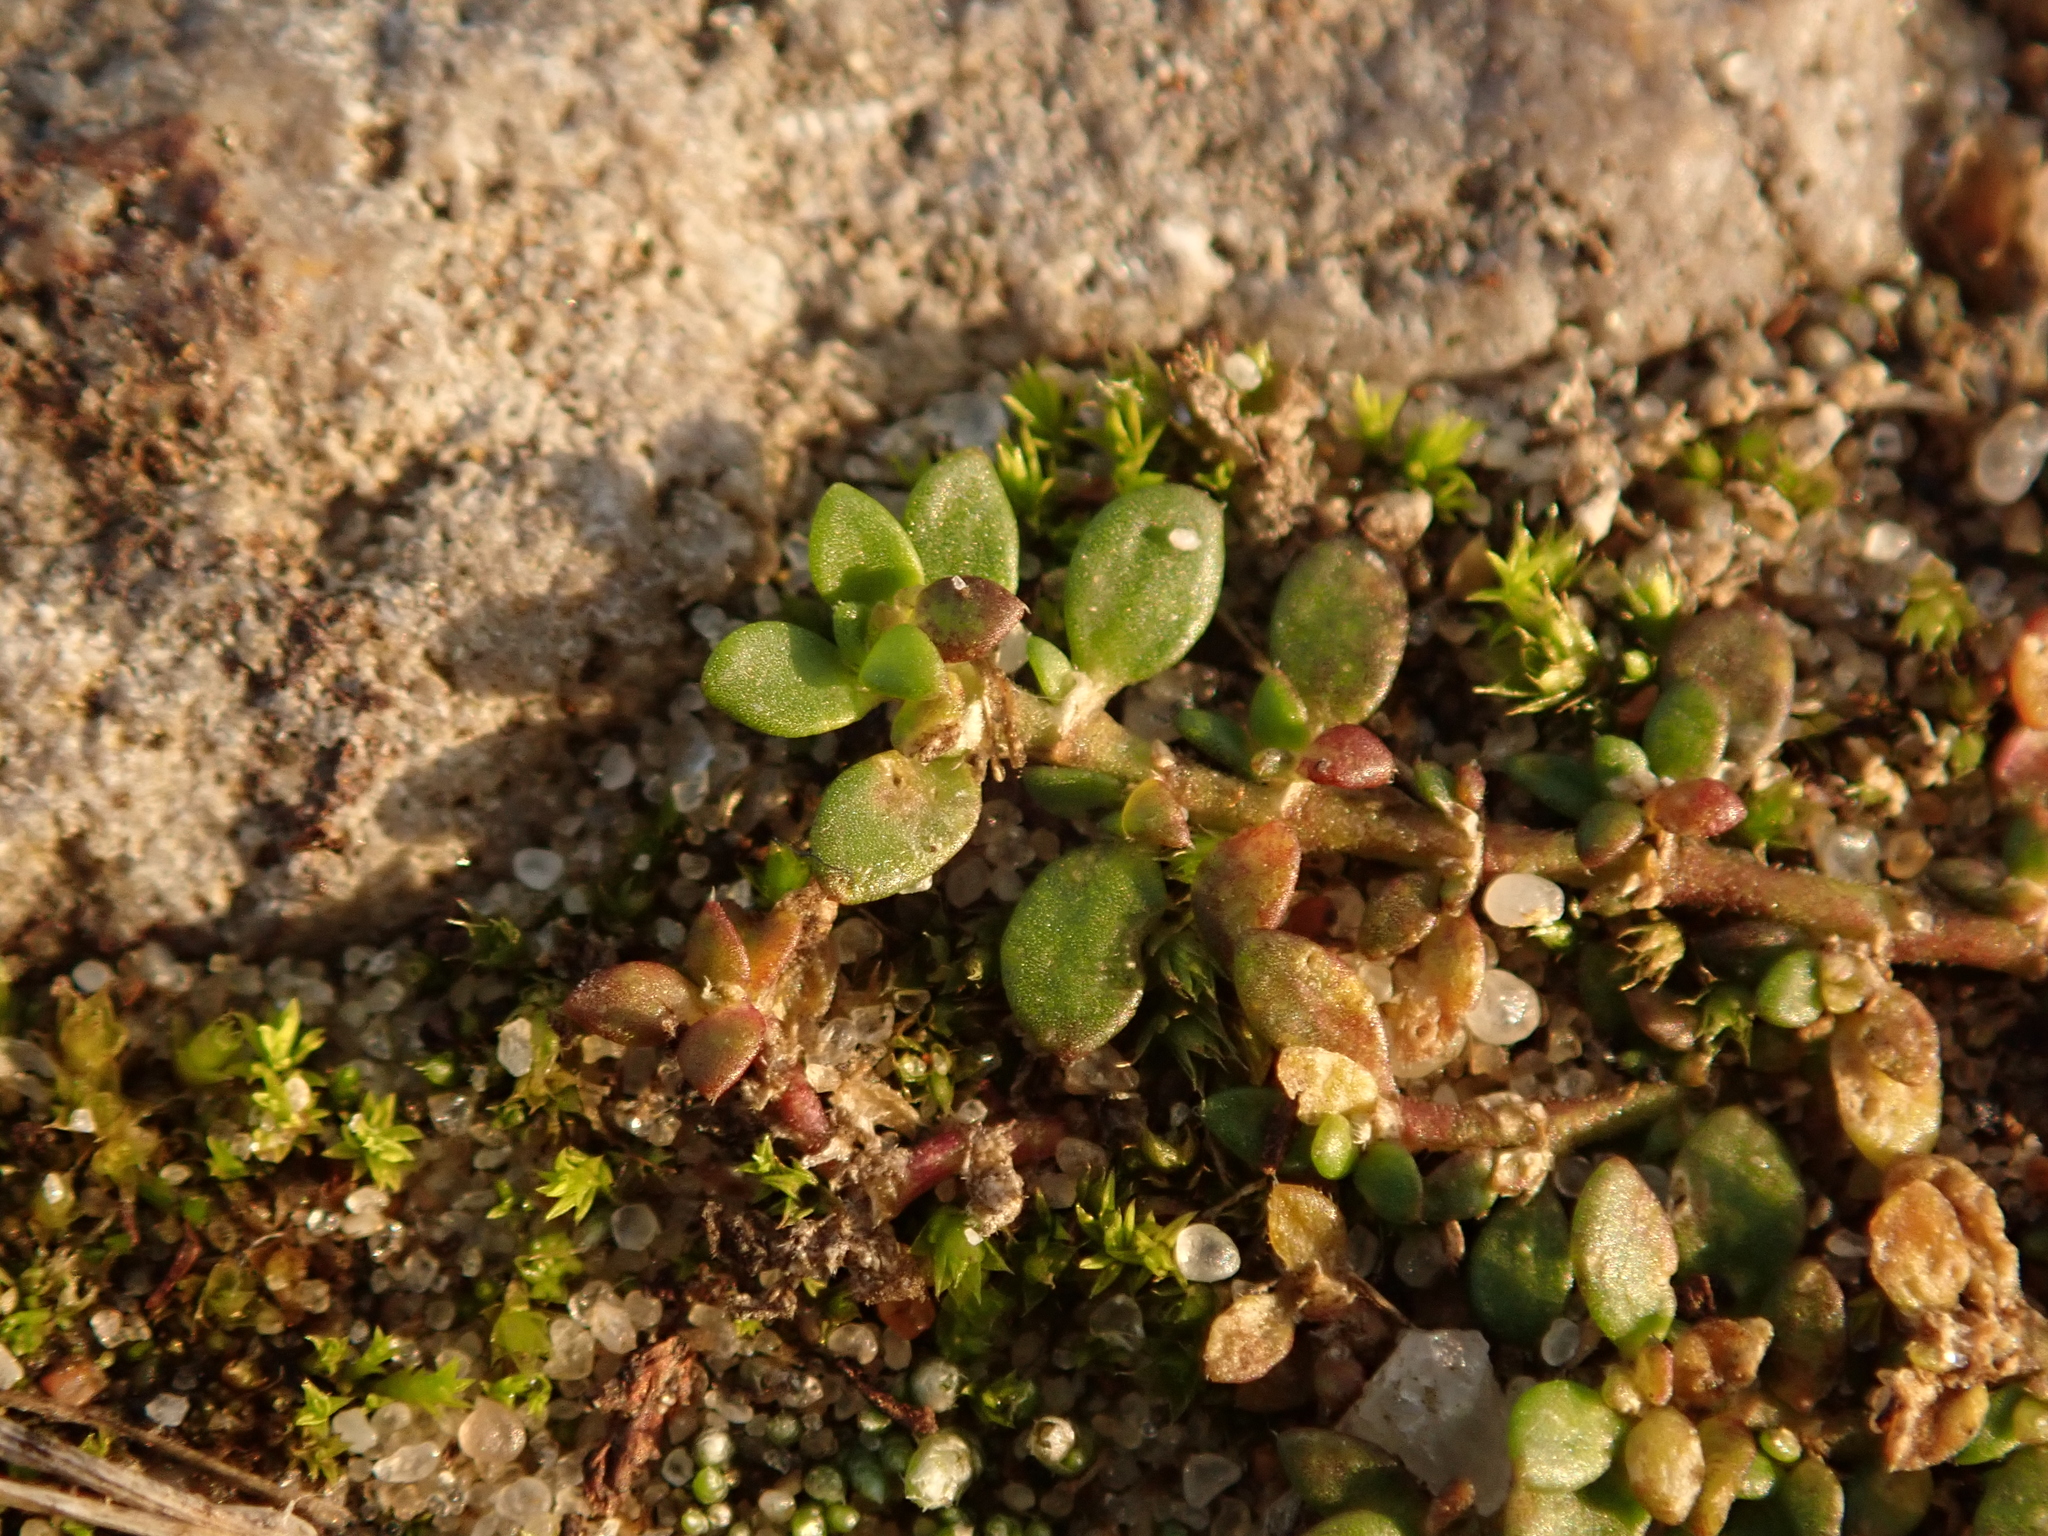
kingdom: Plantae
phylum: Tracheophyta
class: Magnoliopsida
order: Caryophyllales
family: Caryophyllaceae
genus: Herniaria
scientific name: Herniaria glabra
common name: Smooth rupturewort
